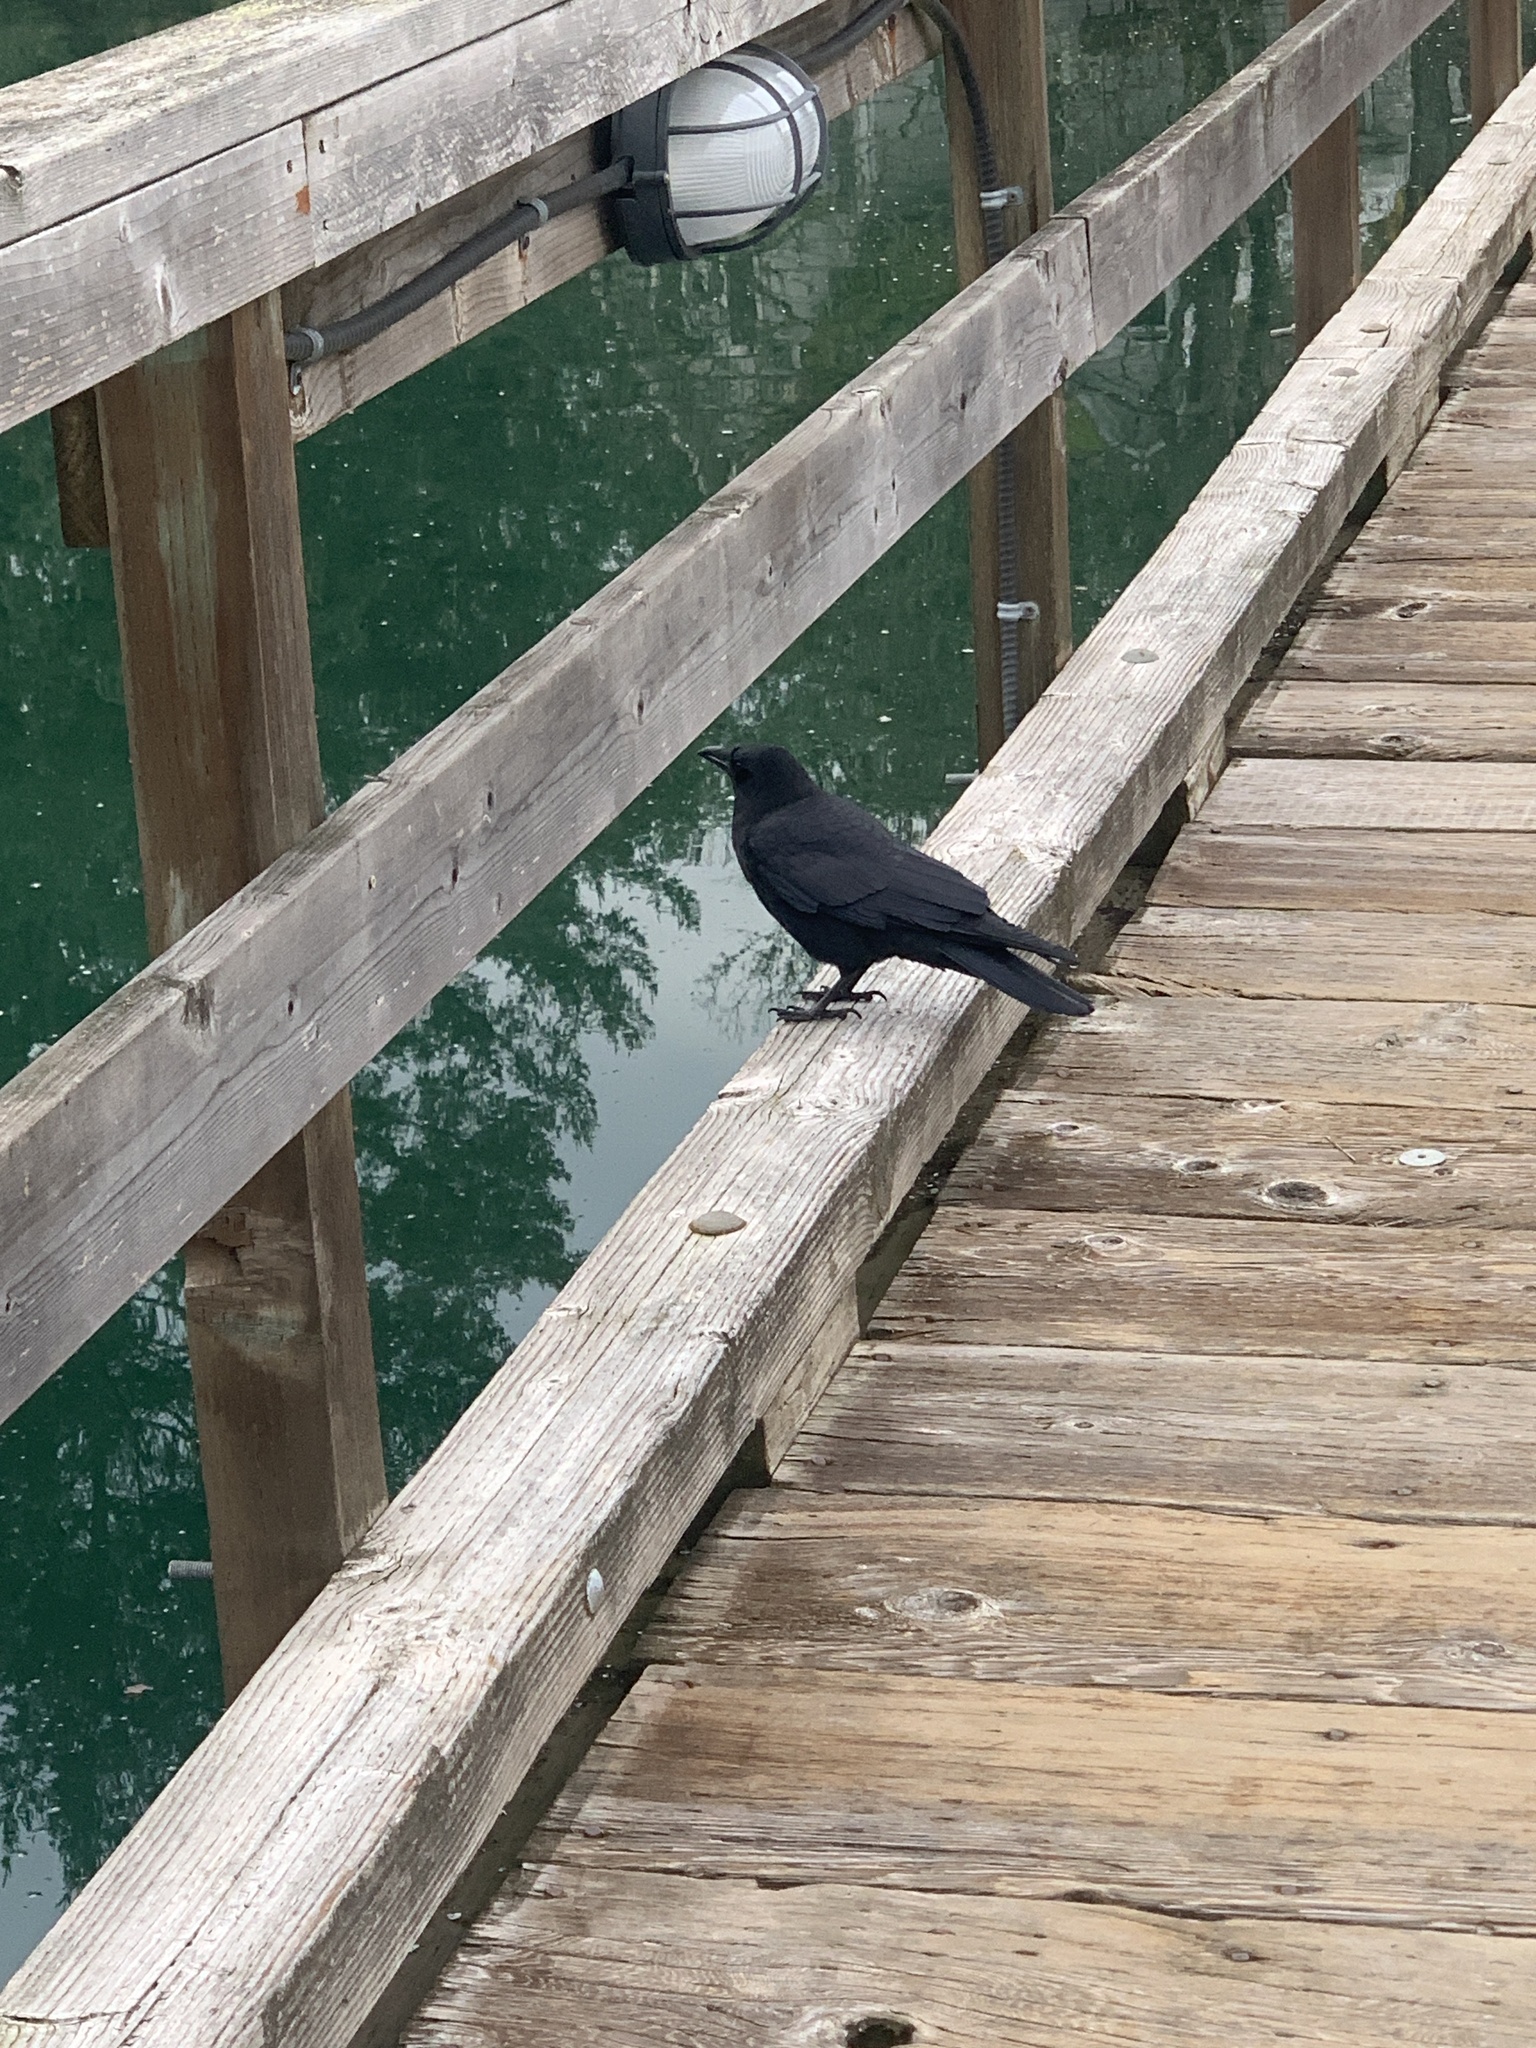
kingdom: Animalia
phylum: Chordata
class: Aves
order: Passeriformes
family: Corvidae
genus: Corvus
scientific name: Corvus brachyrhynchos
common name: American crow
